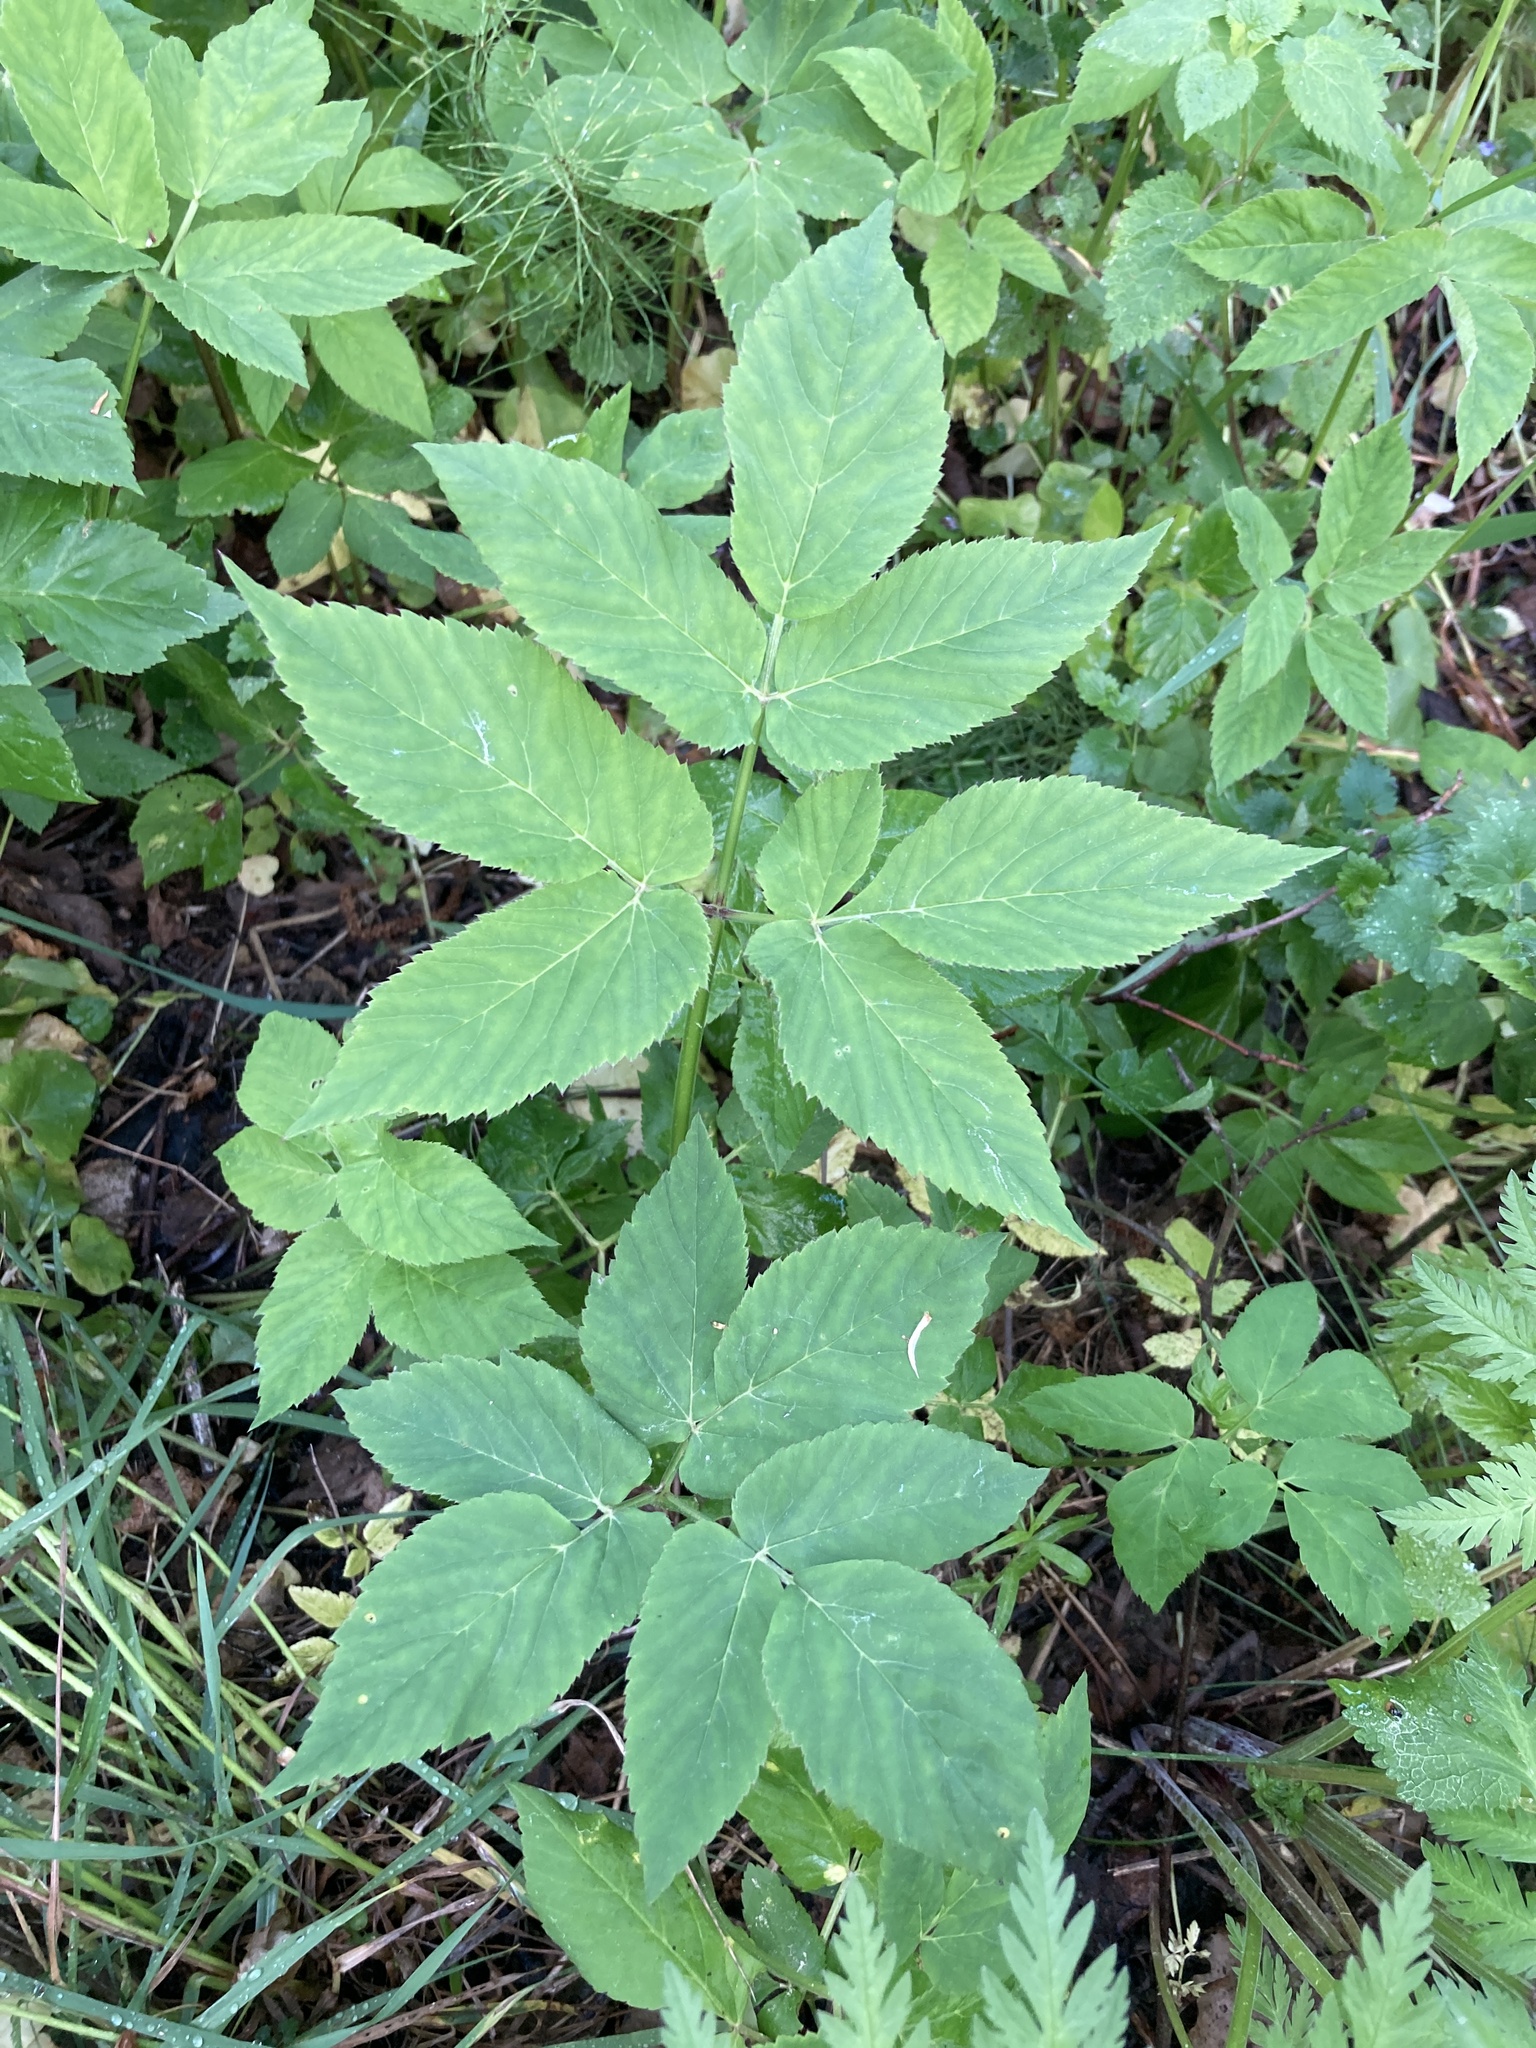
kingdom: Plantae
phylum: Tracheophyta
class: Magnoliopsida
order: Apiales
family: Apiaceae
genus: Aegopodium
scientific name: Aegopodium podagraria
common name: Ground-elder
